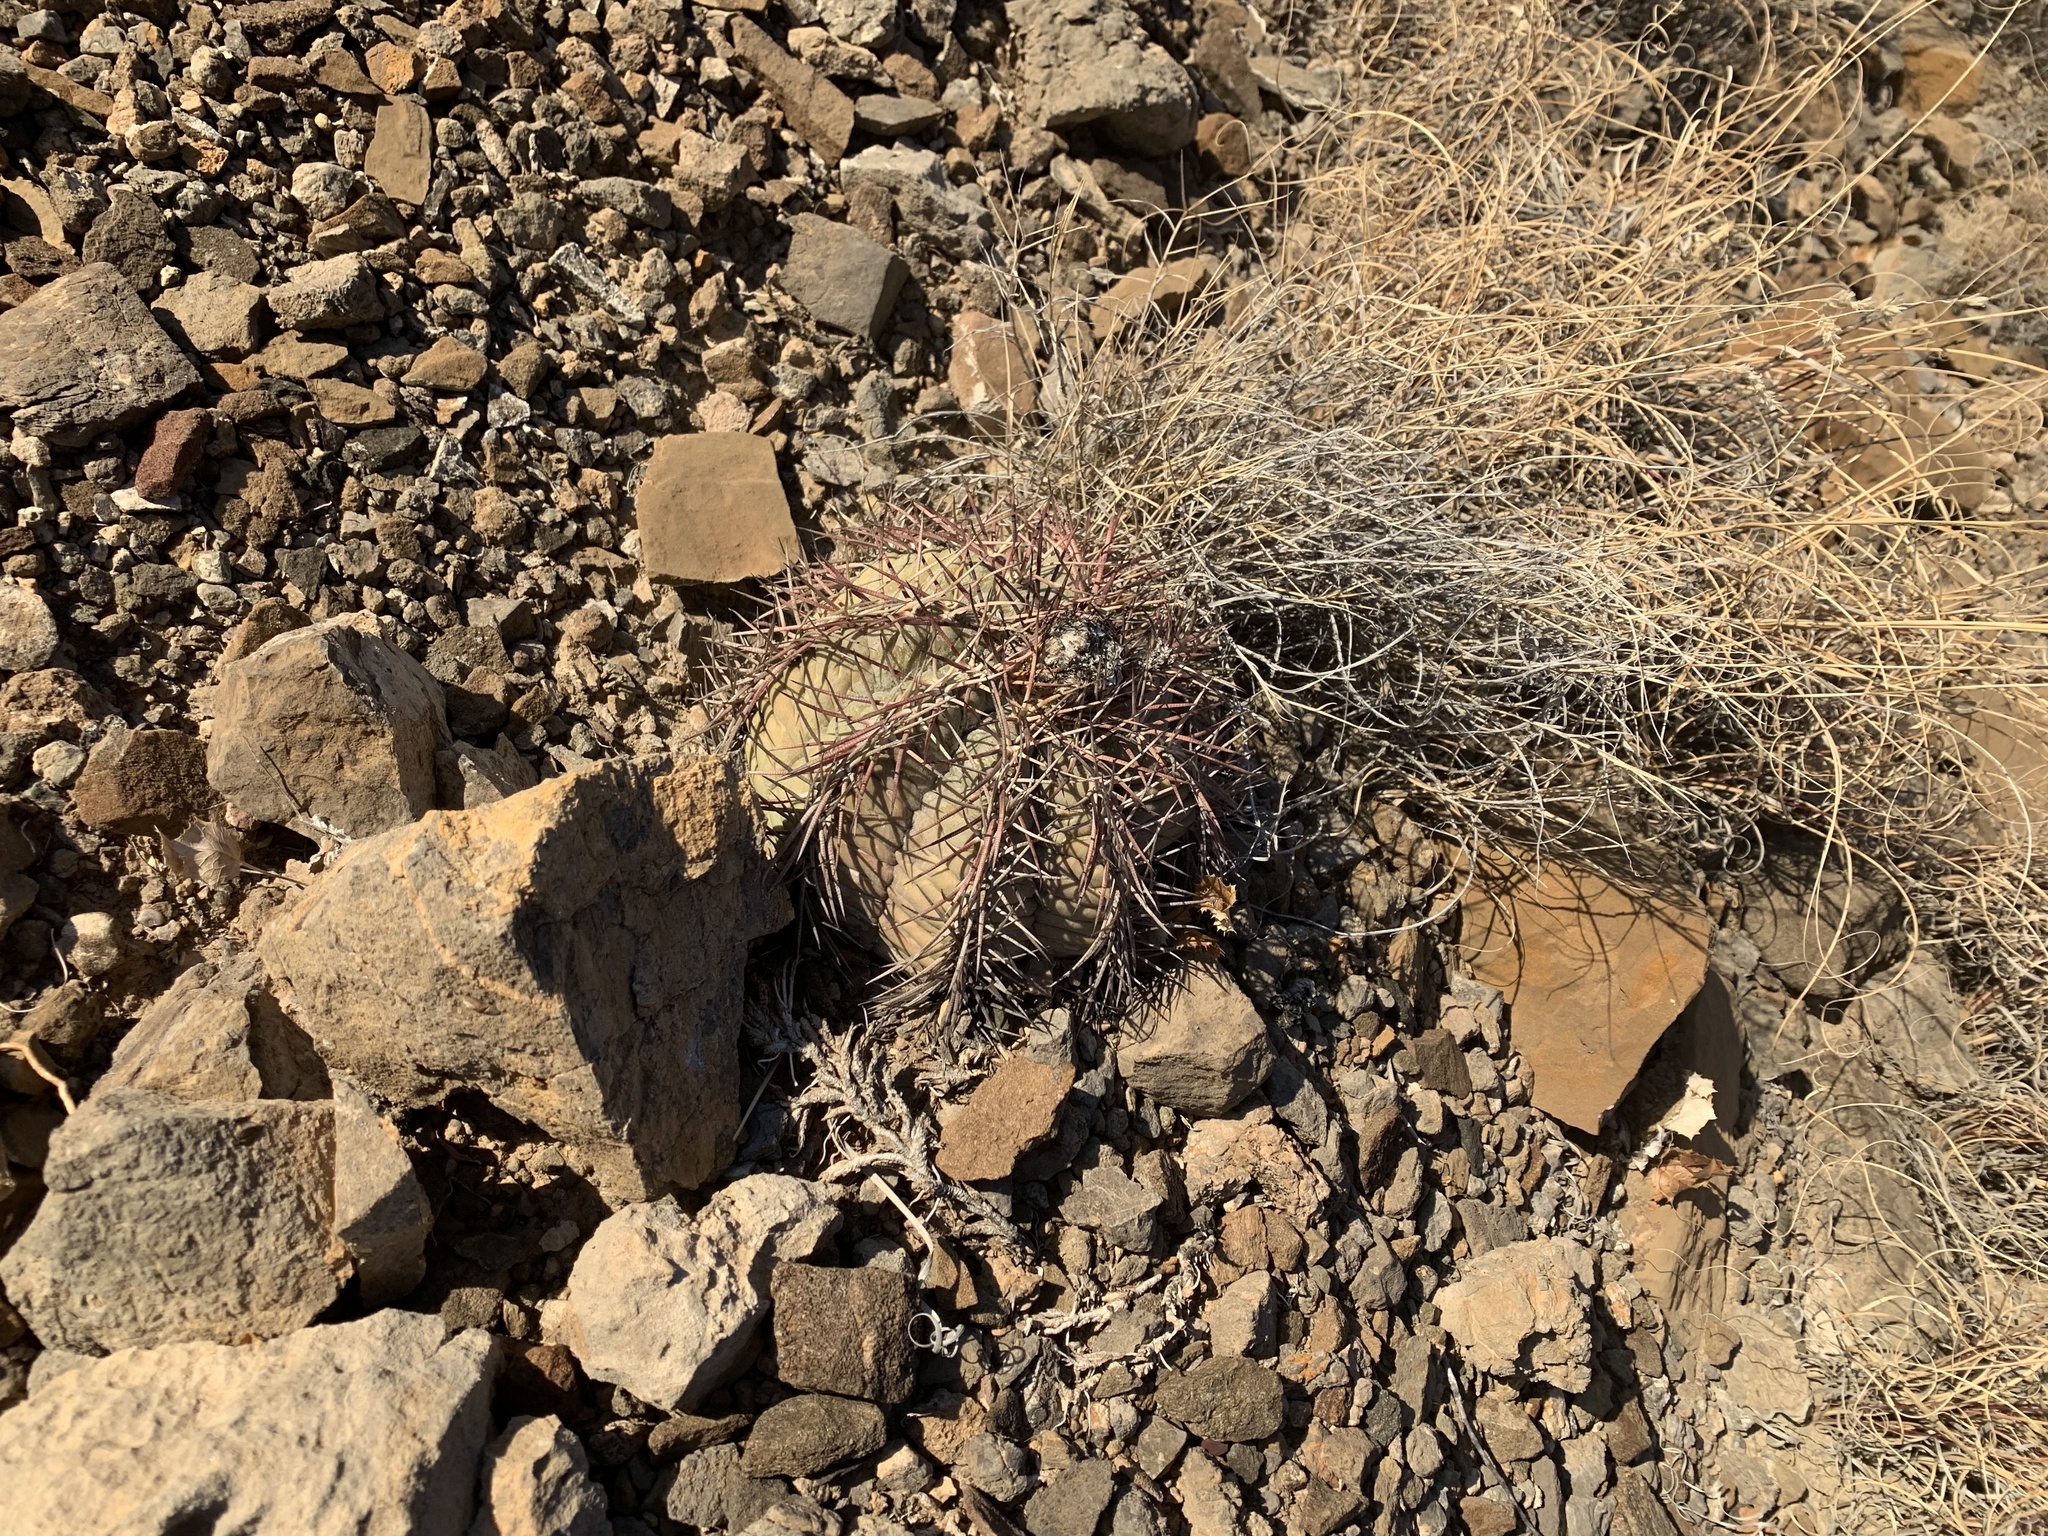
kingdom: Plantae
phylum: Tracheophyta
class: Magnoliopsida
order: Caryophyllales
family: Cactaceae
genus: Echinocactus
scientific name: Echinocactus horizonthalonius
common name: Devilshead
